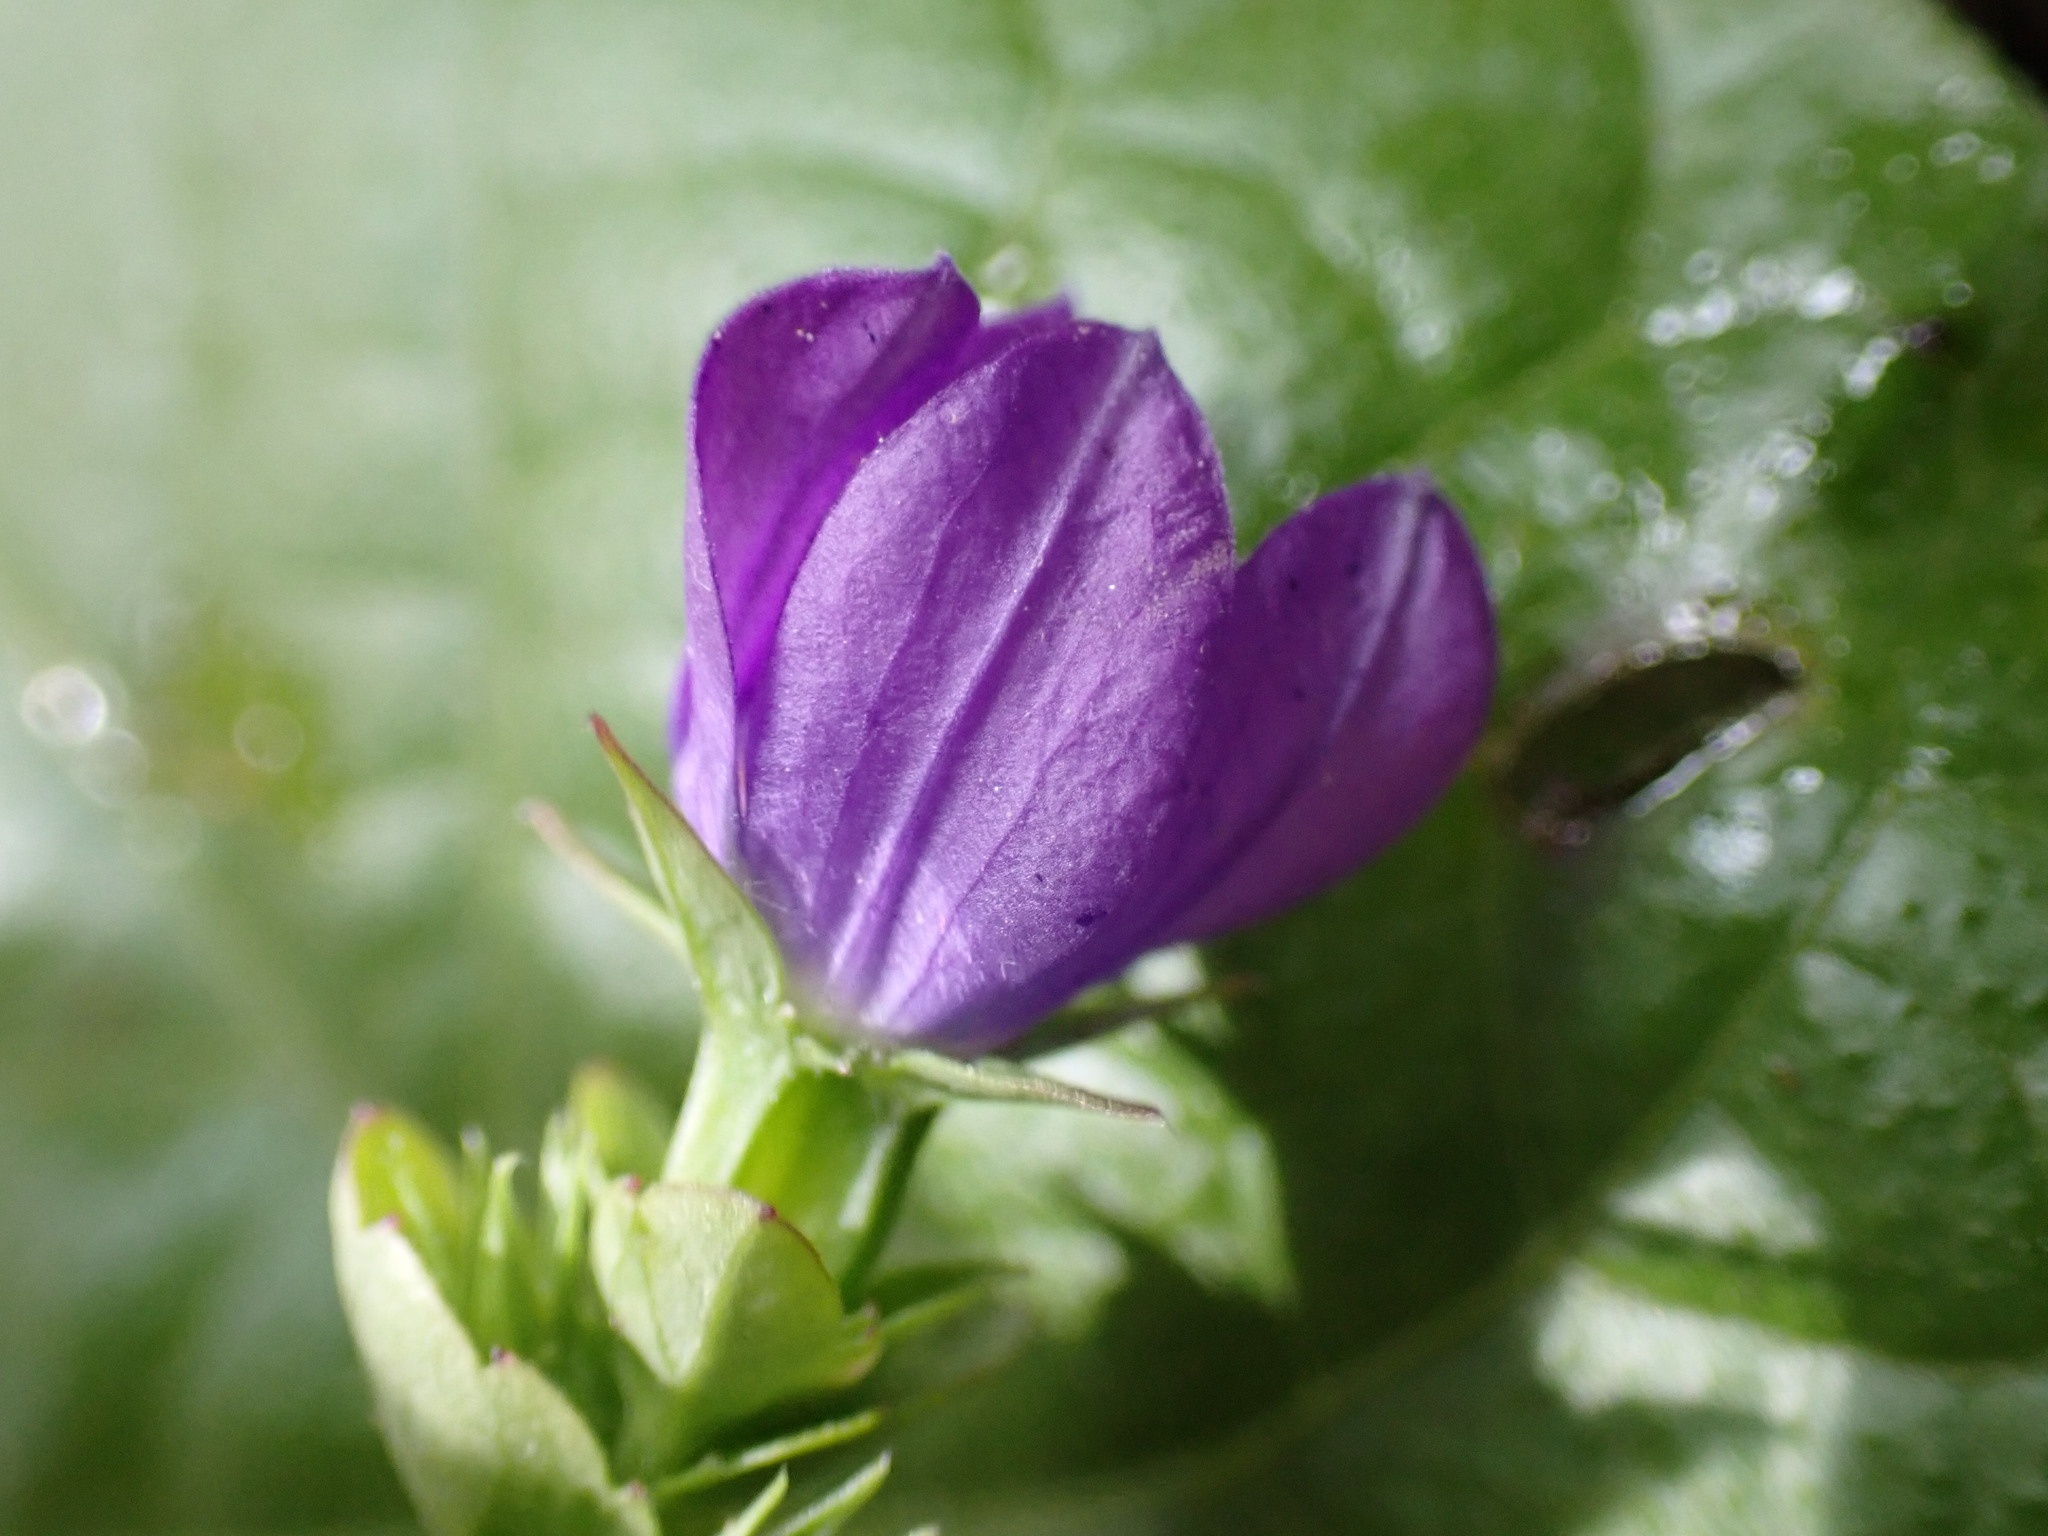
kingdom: Plantae
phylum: Tracheophyta
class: Magnoliopsida
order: Asterales
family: Campanulaceae
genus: Triodanis
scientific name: Triodanis perfoliata
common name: Clasping venus' looking-glass
